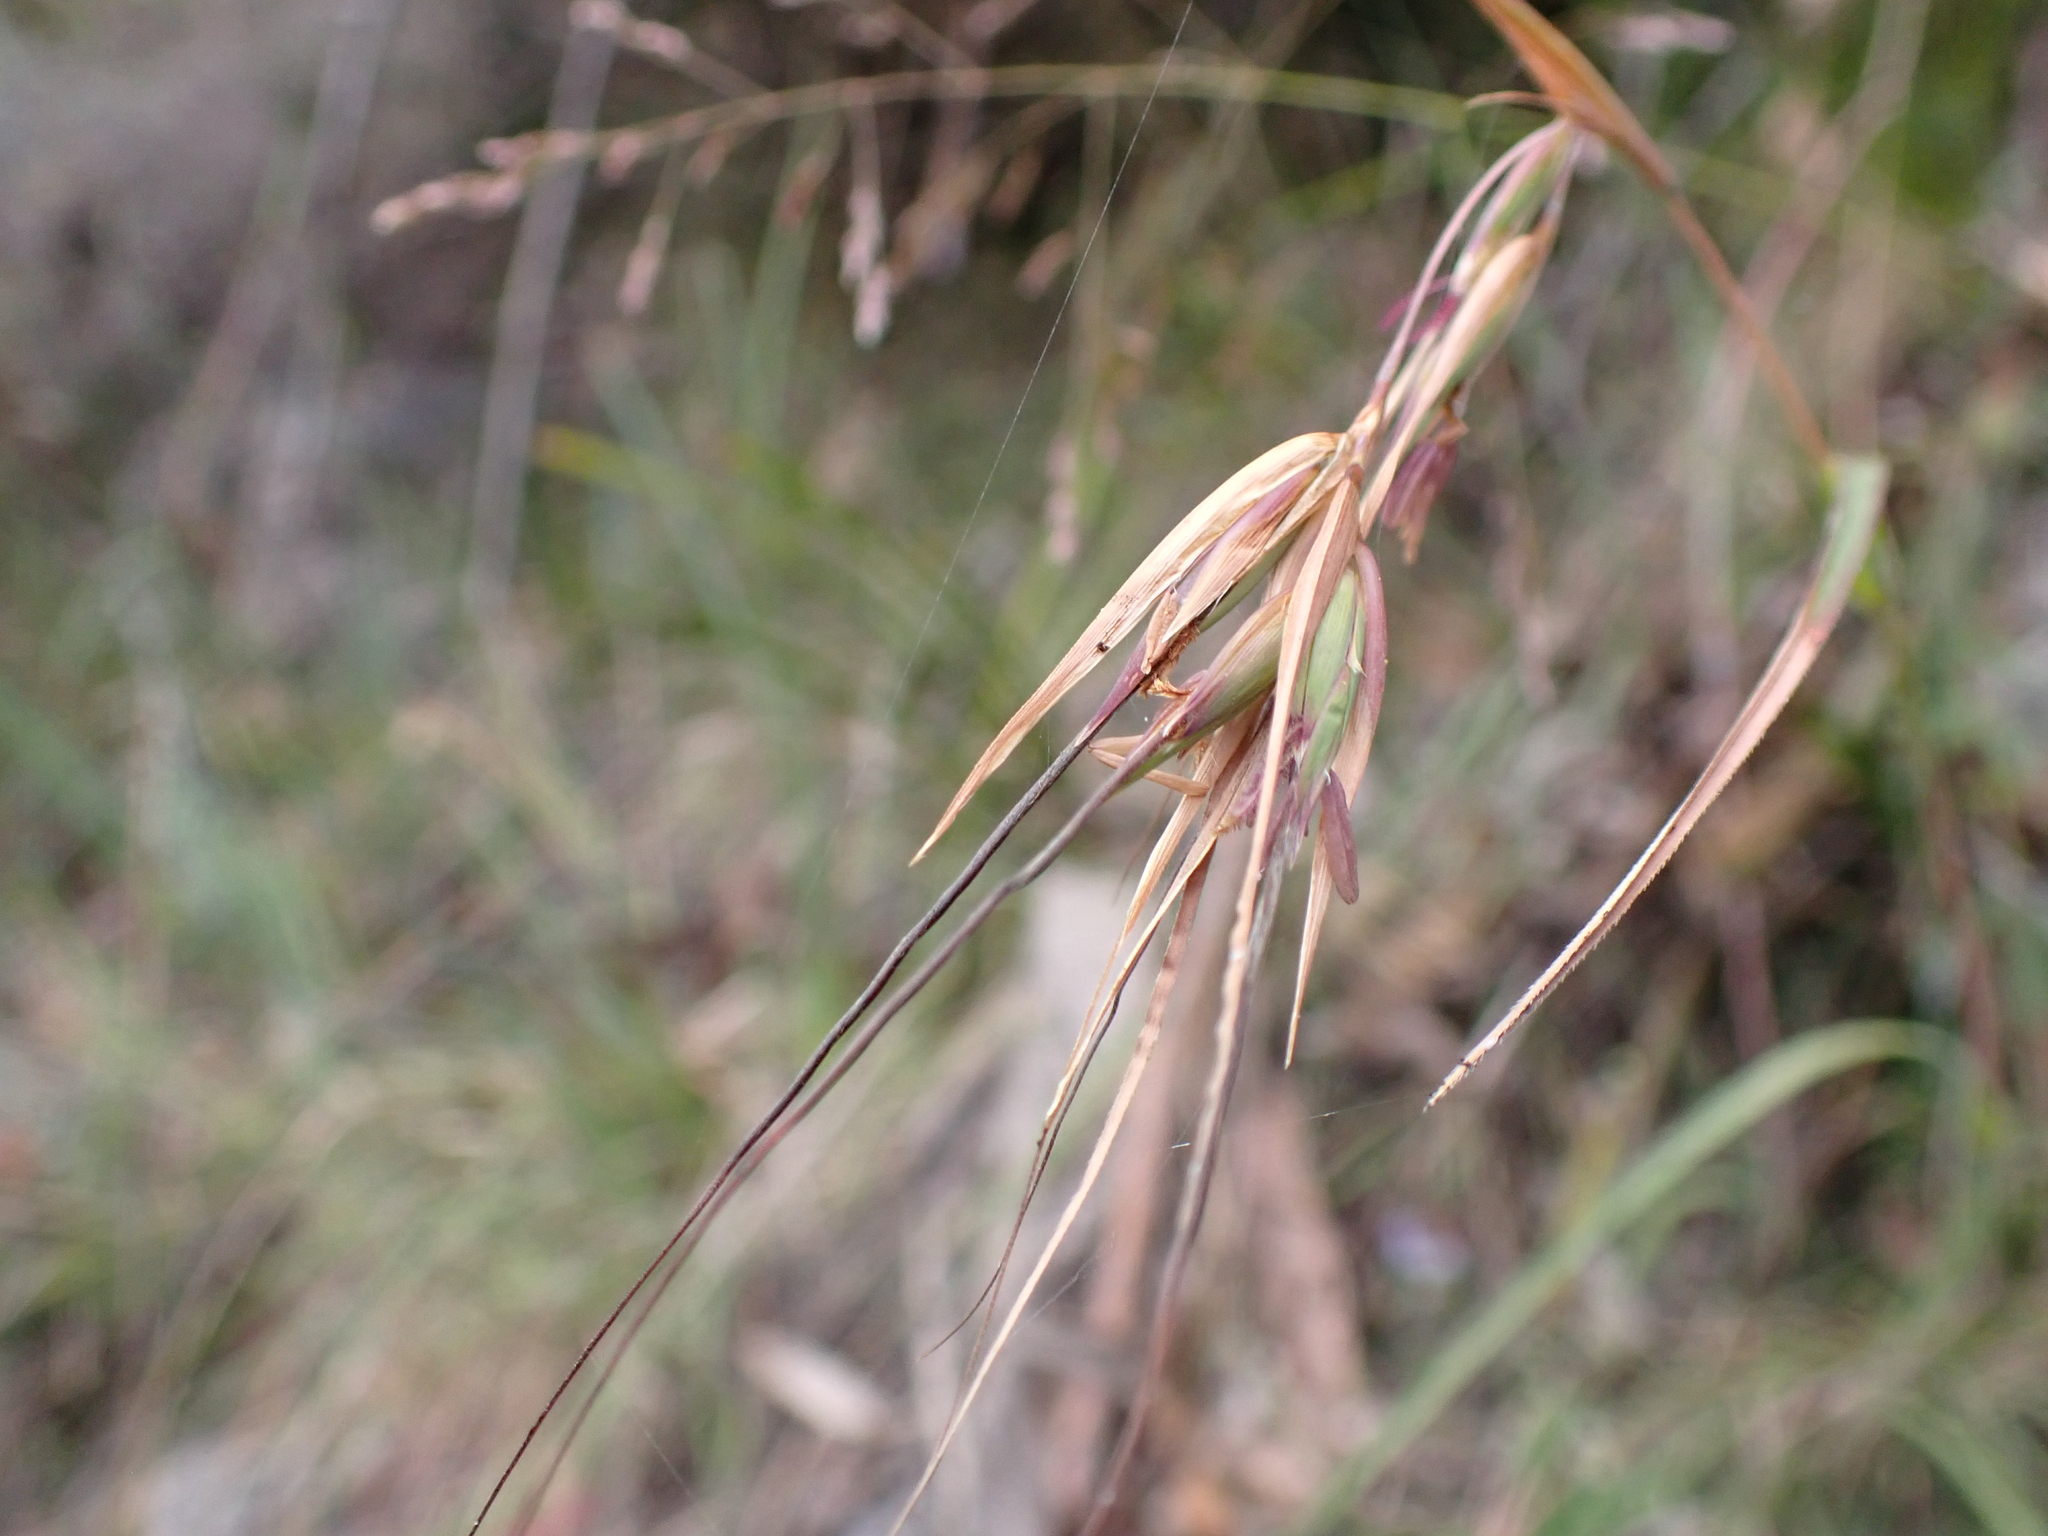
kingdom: Plantae
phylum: Tracheophyta
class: Liliopsida
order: Poales
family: Poaceae
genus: Themeda
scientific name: Themeda triandra
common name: Kangaroo grass
